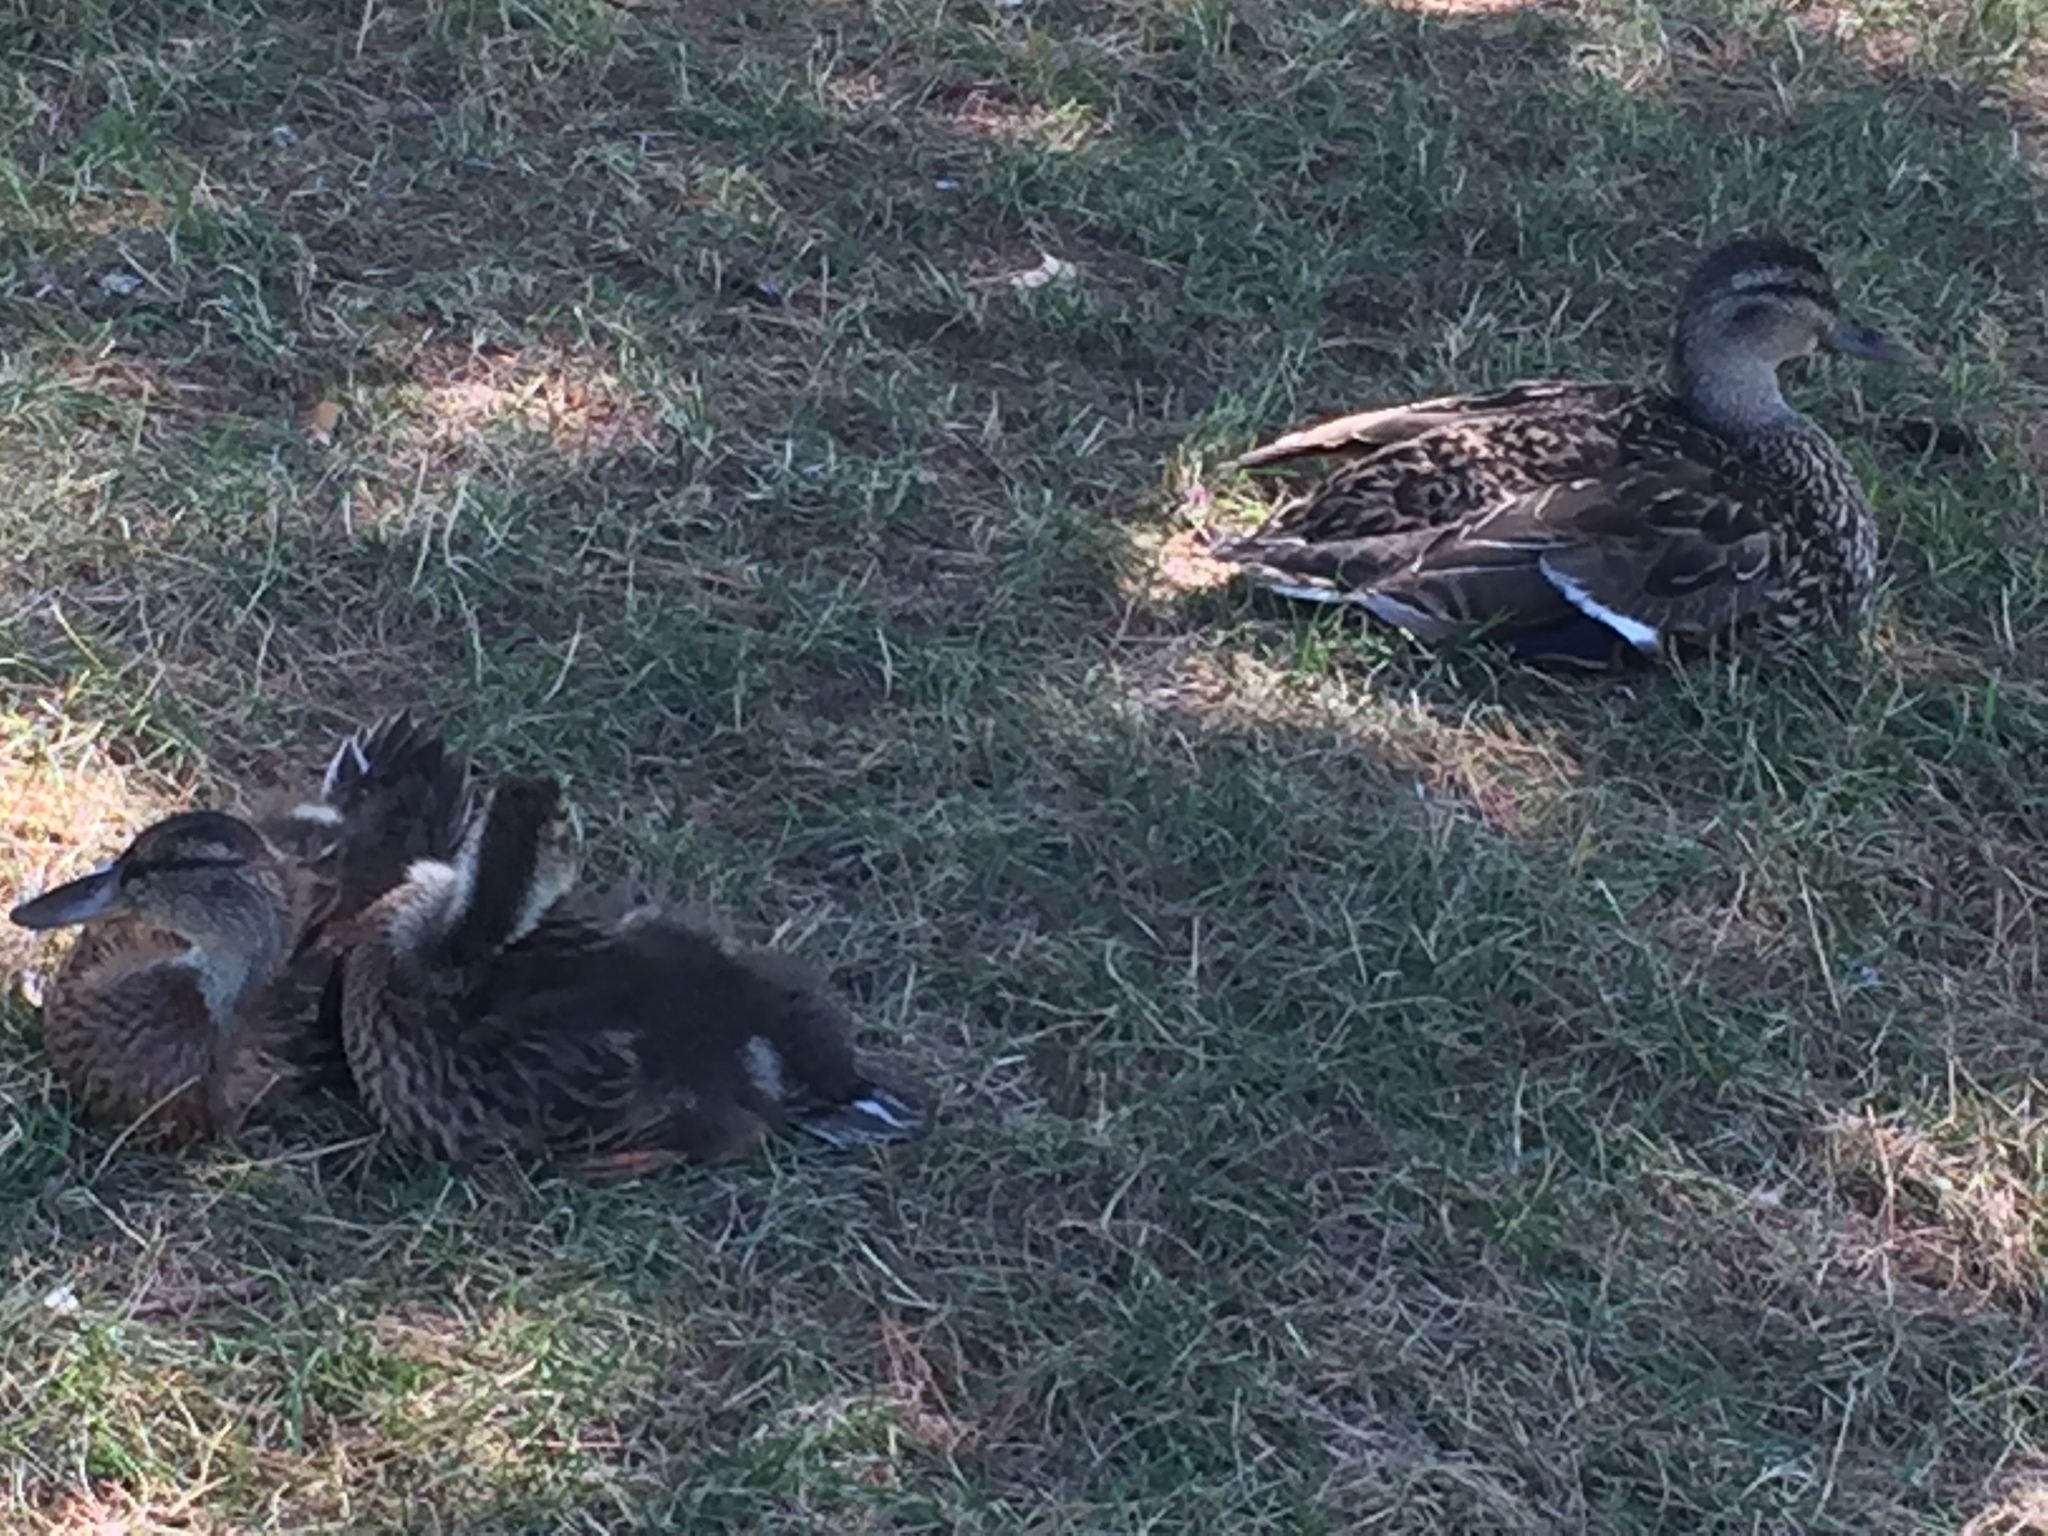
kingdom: Animalia
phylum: Chordata
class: Aves
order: Anseriformes
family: Anatidae
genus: Anas
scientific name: Anas platyrhynchos
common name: Mallard
